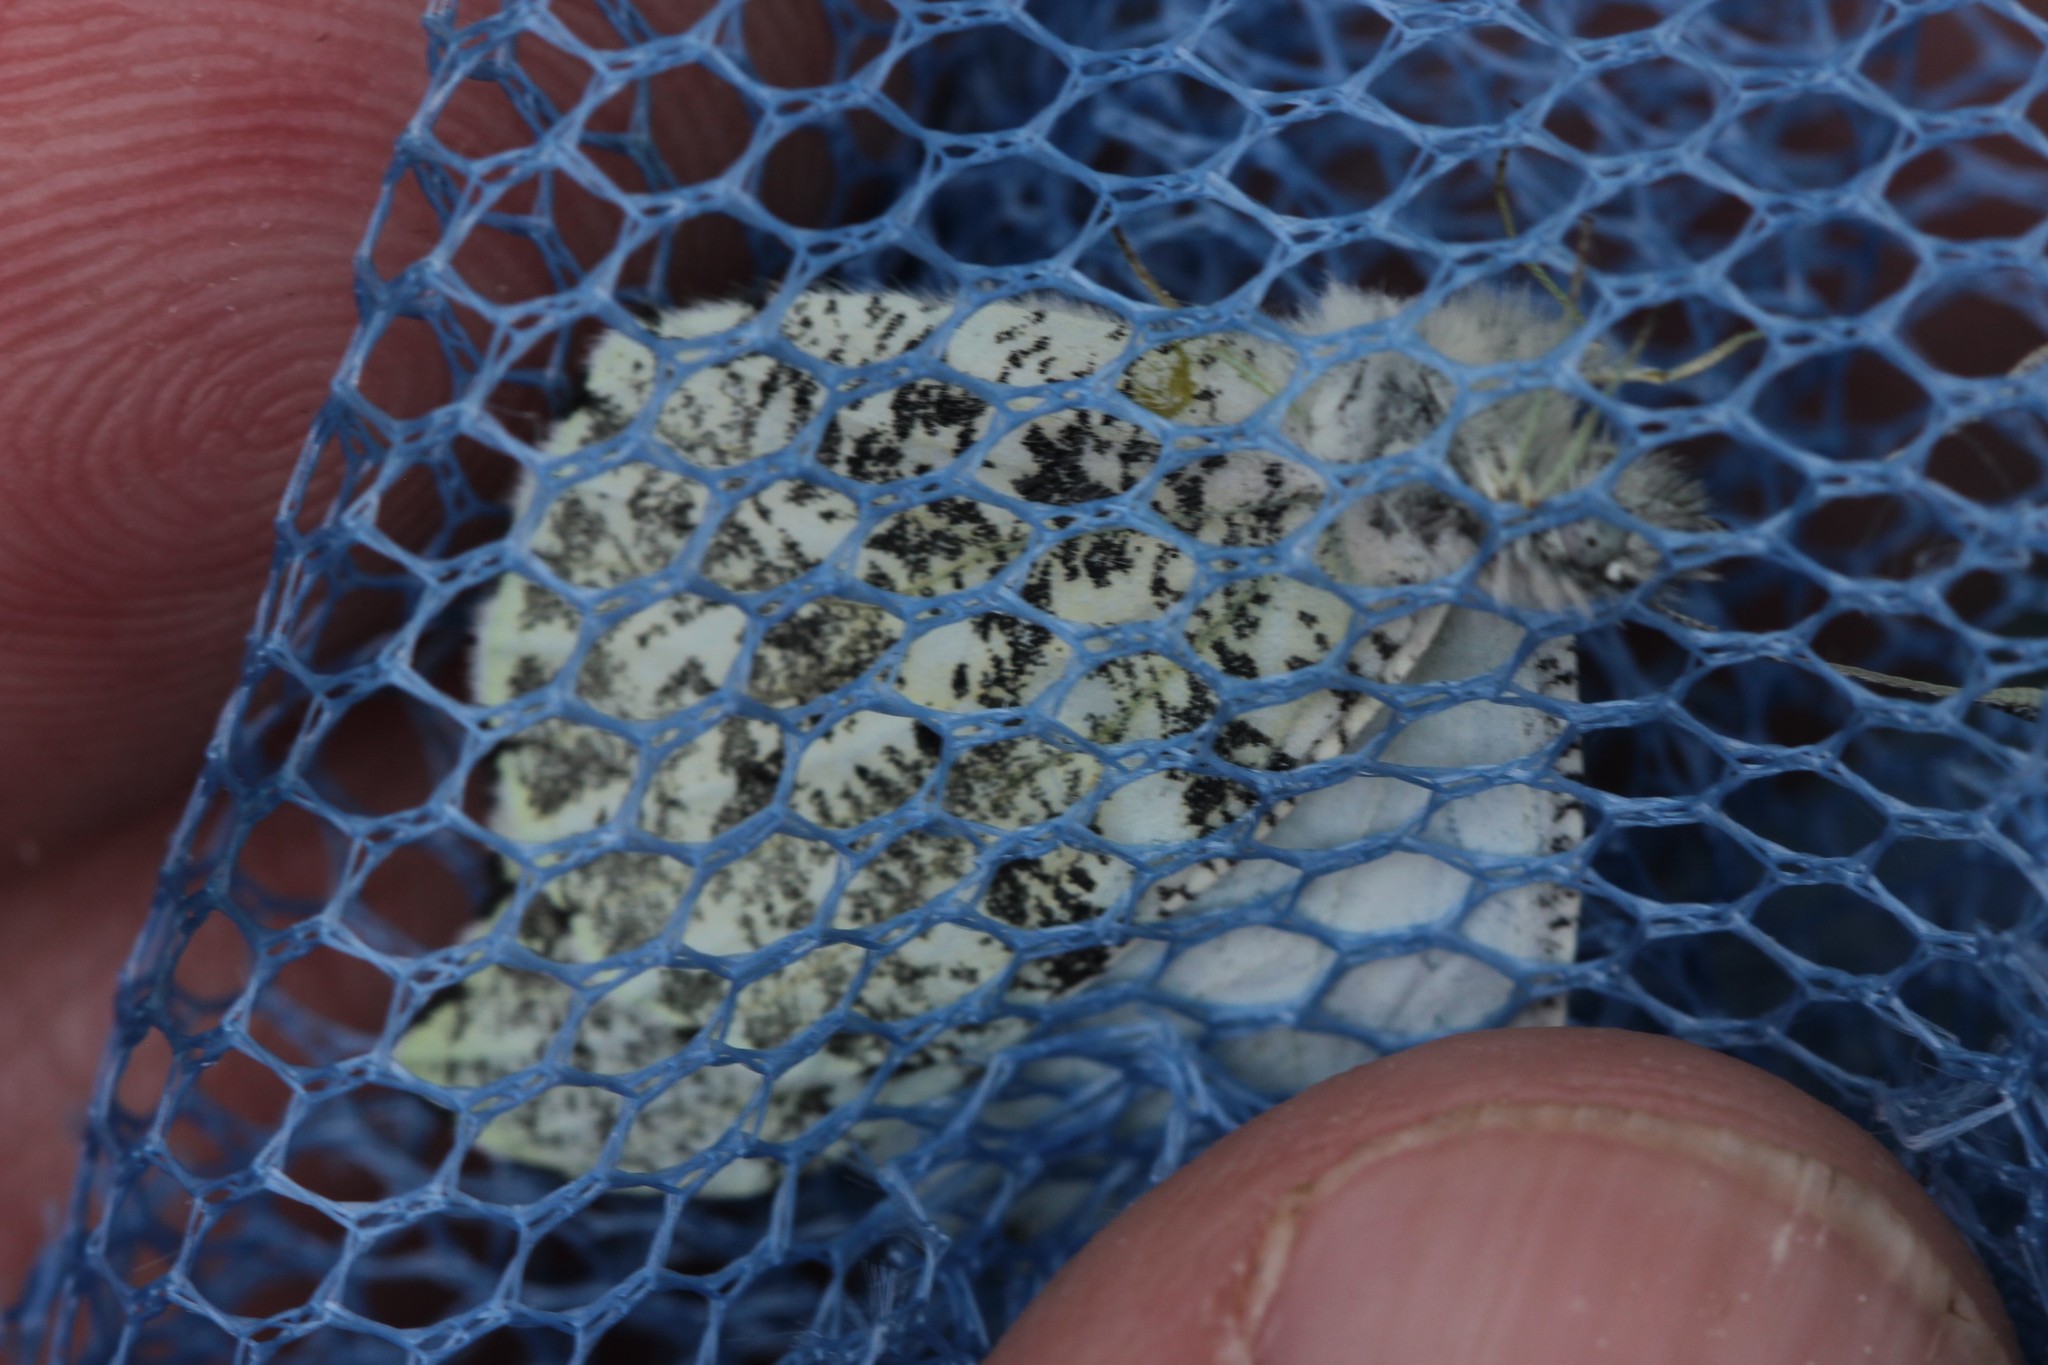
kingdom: Animalia
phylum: Arthropoda
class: Insecta
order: Lepidoptera
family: Pieridae
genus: Anthocharis
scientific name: Anthocharis midea
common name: Falcate orangetip
